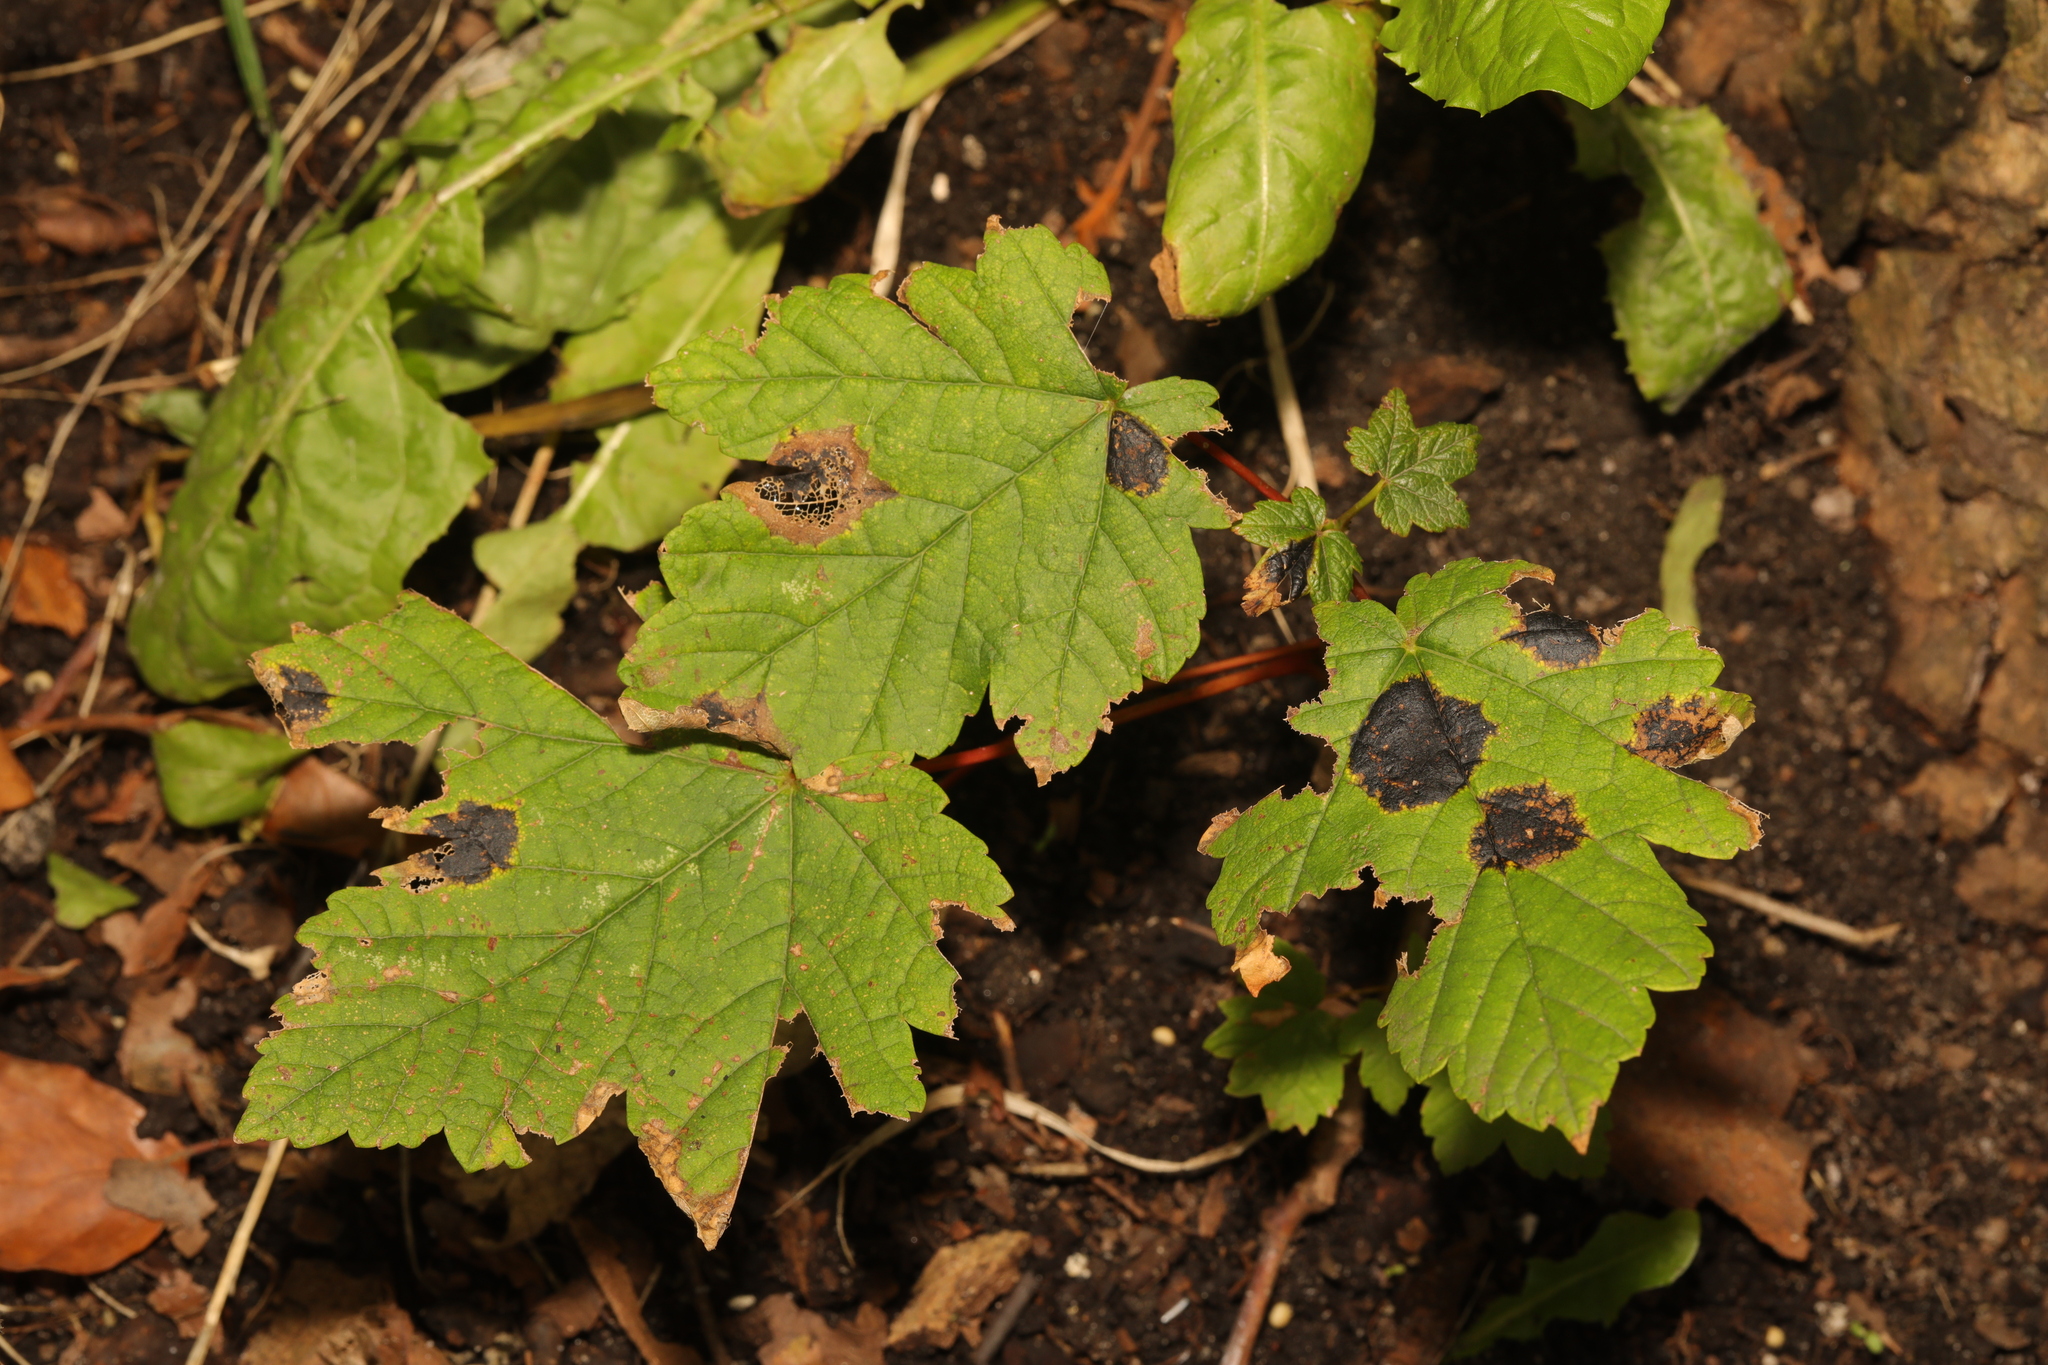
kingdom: Plantae
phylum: Tracheophyta
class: Magnoliopsida
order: Sapindales
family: Sapindaceae
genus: Acer
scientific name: Acer pseudoplatanus
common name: Sycamore
